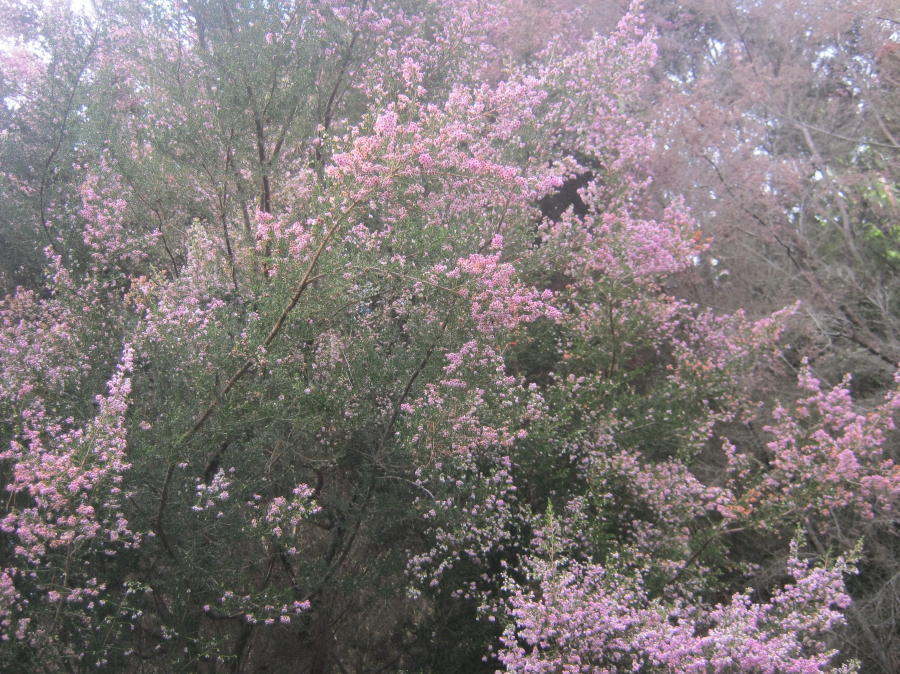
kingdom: Plantae
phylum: Tracheophyta
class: Magnoliopsida
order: Ericales
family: Ericaceae
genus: Erica
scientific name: Erica canaliculata
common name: Hairy grey heather
